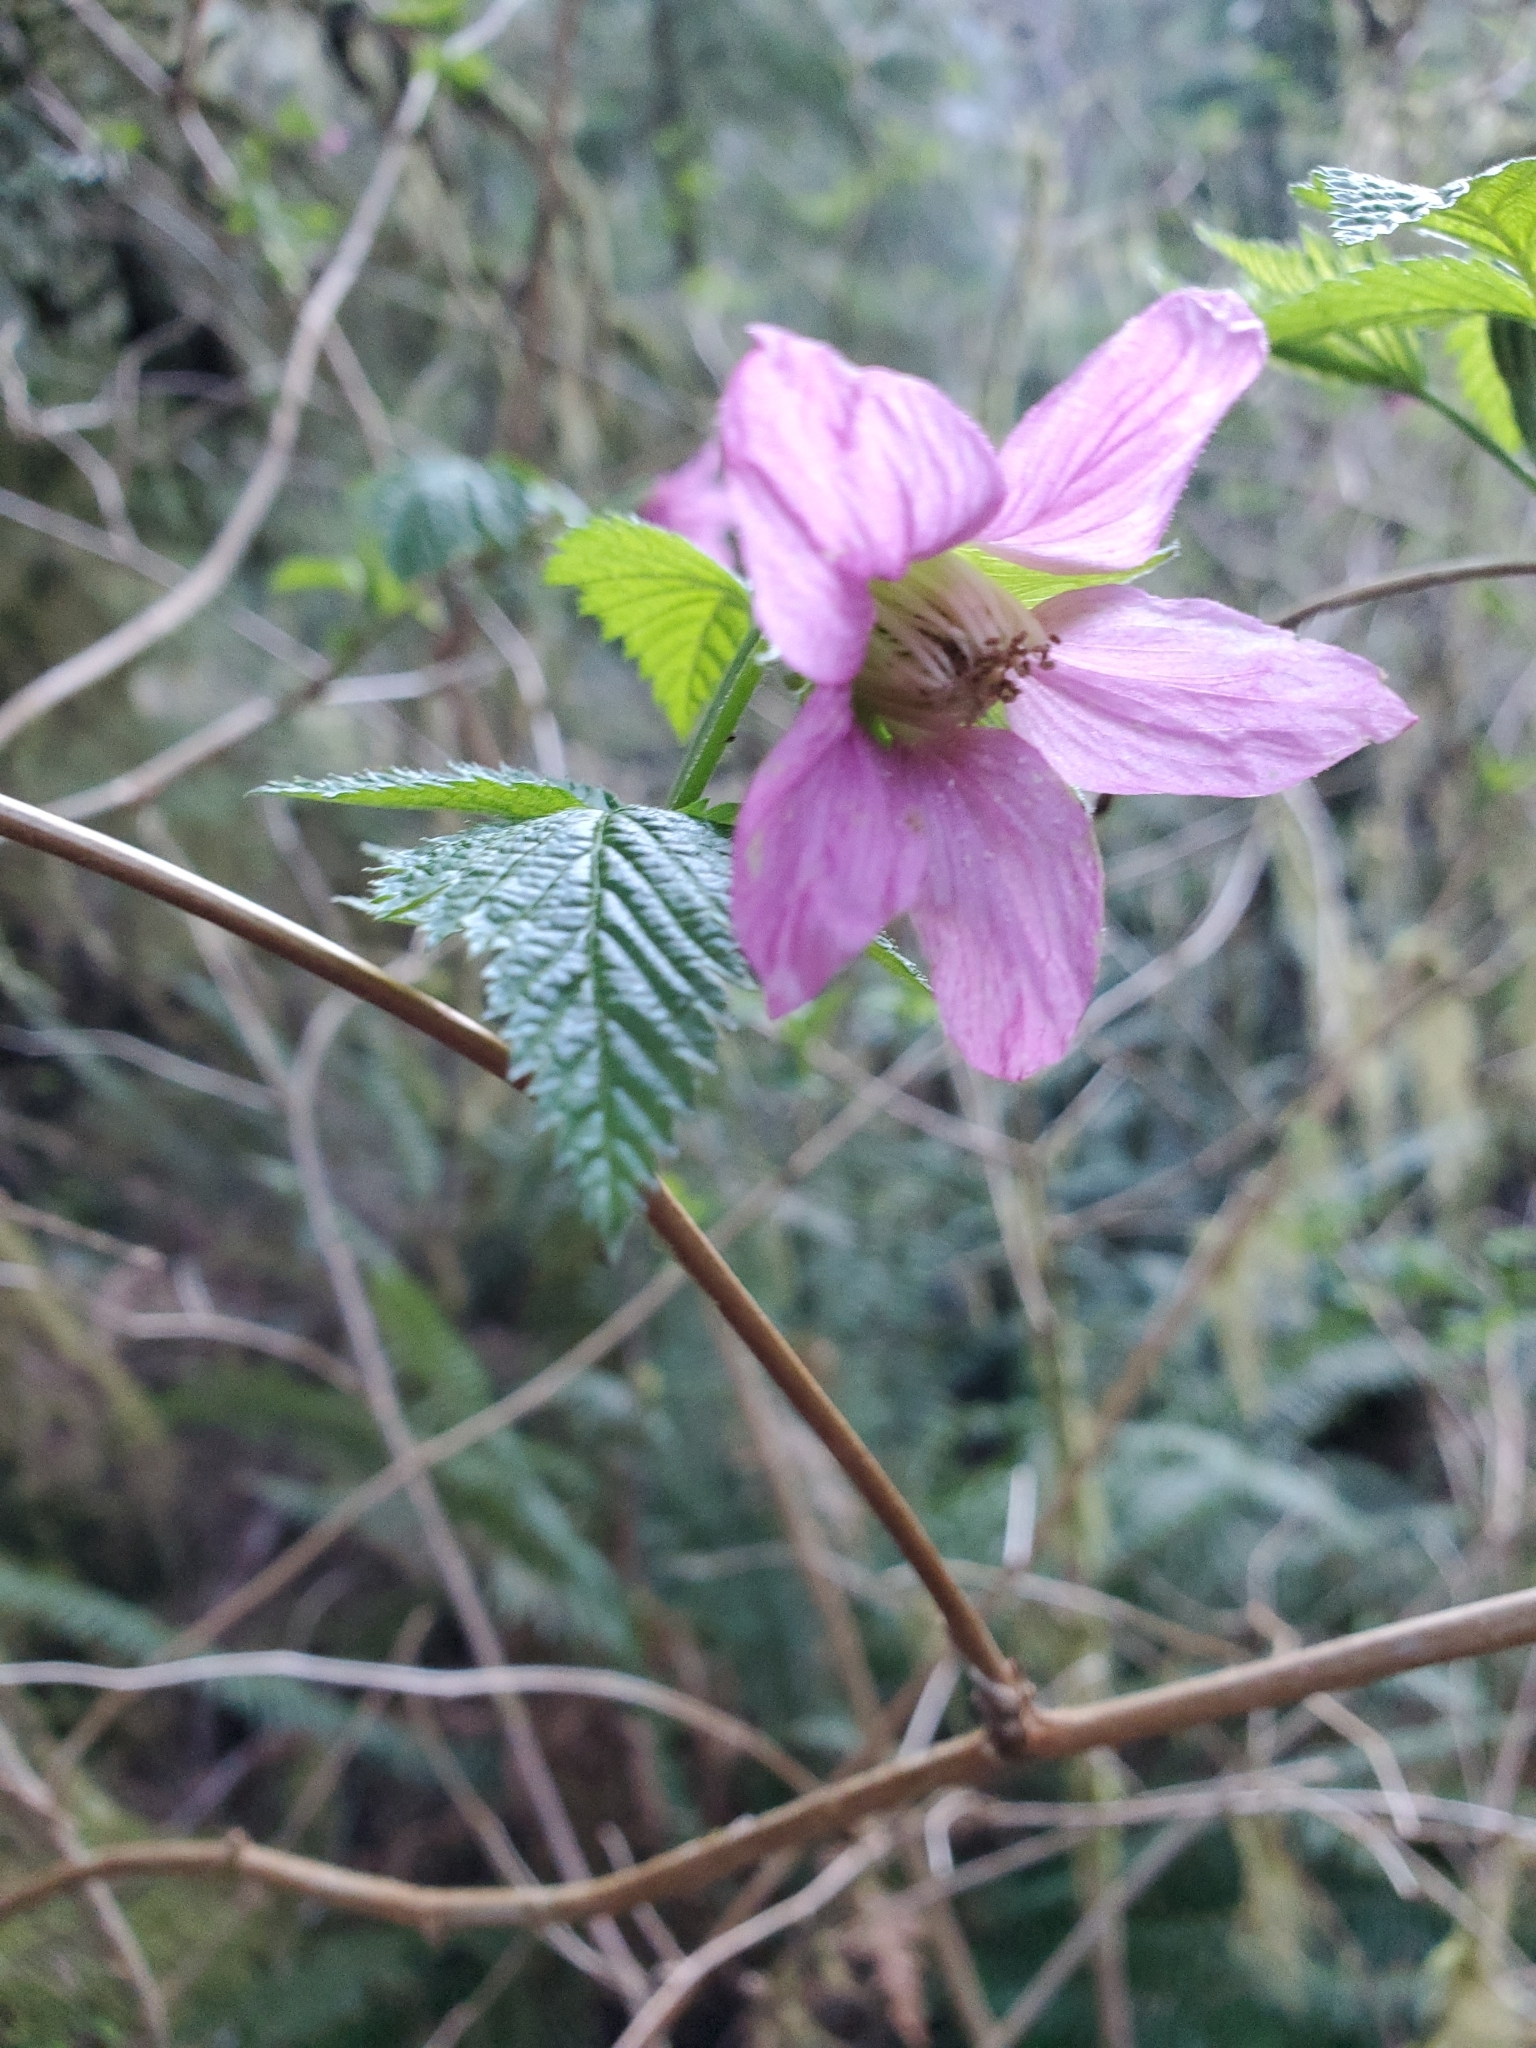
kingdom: Plantae
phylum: Tracheophyta
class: Magnoliopsida
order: Rosales
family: Rosaceae
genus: Rubus
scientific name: Rubus spectabilis
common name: Salmonberry
